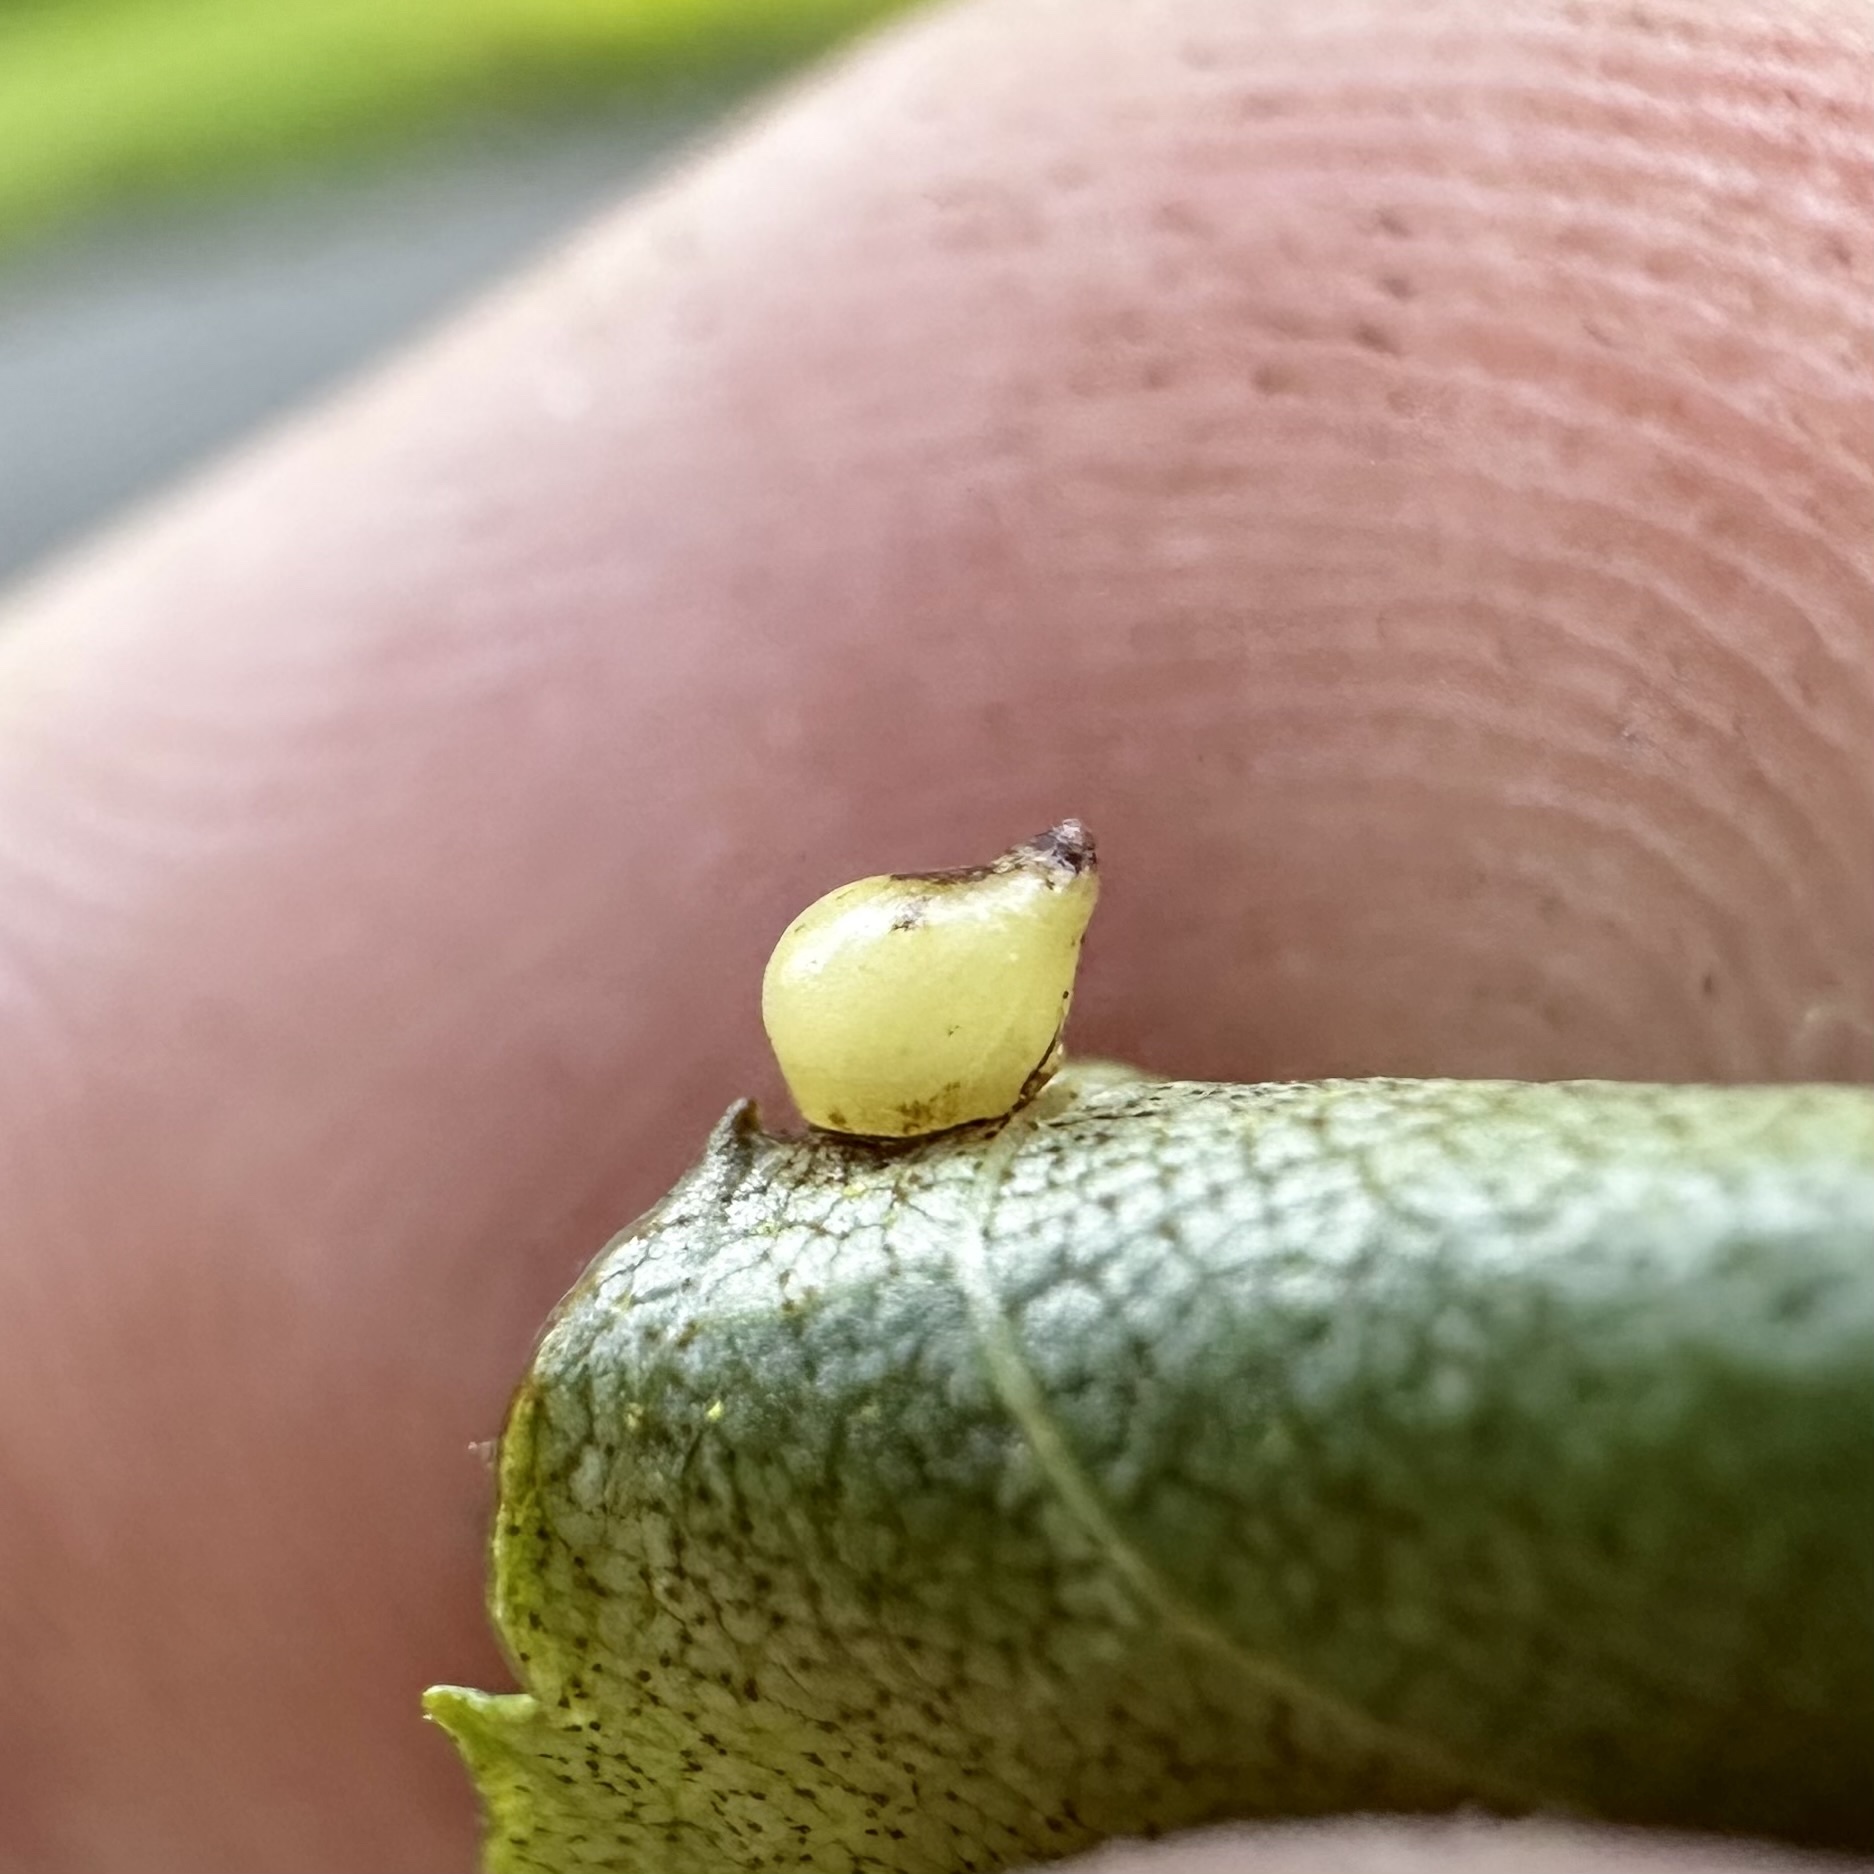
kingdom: Animalia
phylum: Arthropoda
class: Insecta
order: Diptera
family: Cecidomyiidae
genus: Caryomyia
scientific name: Caryomyia shmoo
